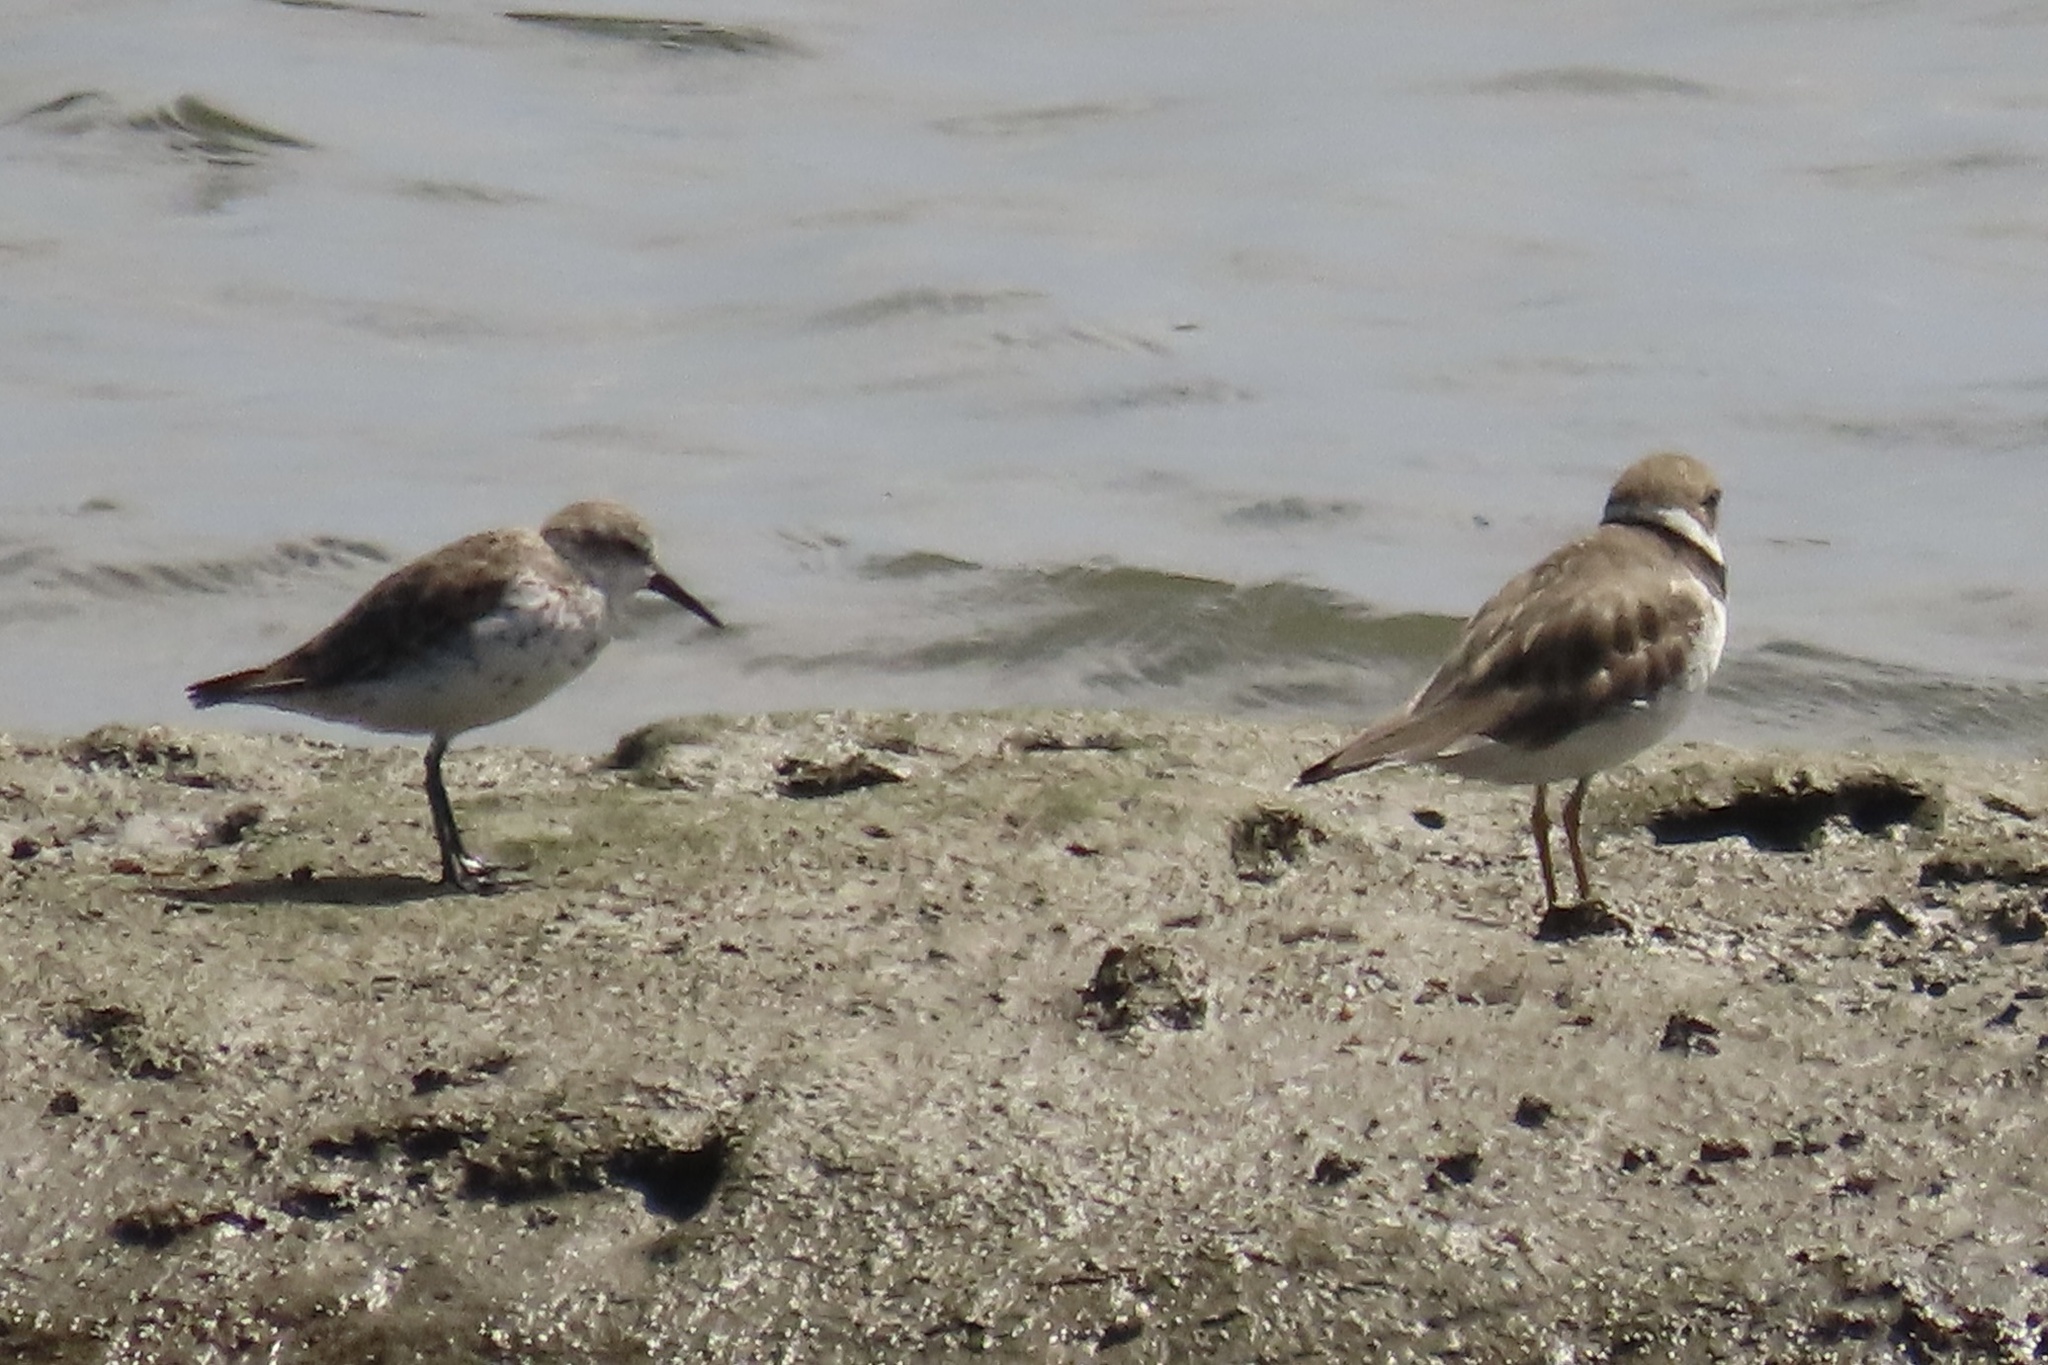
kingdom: Animalia
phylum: Chordata
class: Aves
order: Charadriiformes
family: Charadriidae
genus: Charadrius
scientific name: Charadrius semipalmatus
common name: Semipalmated plover
